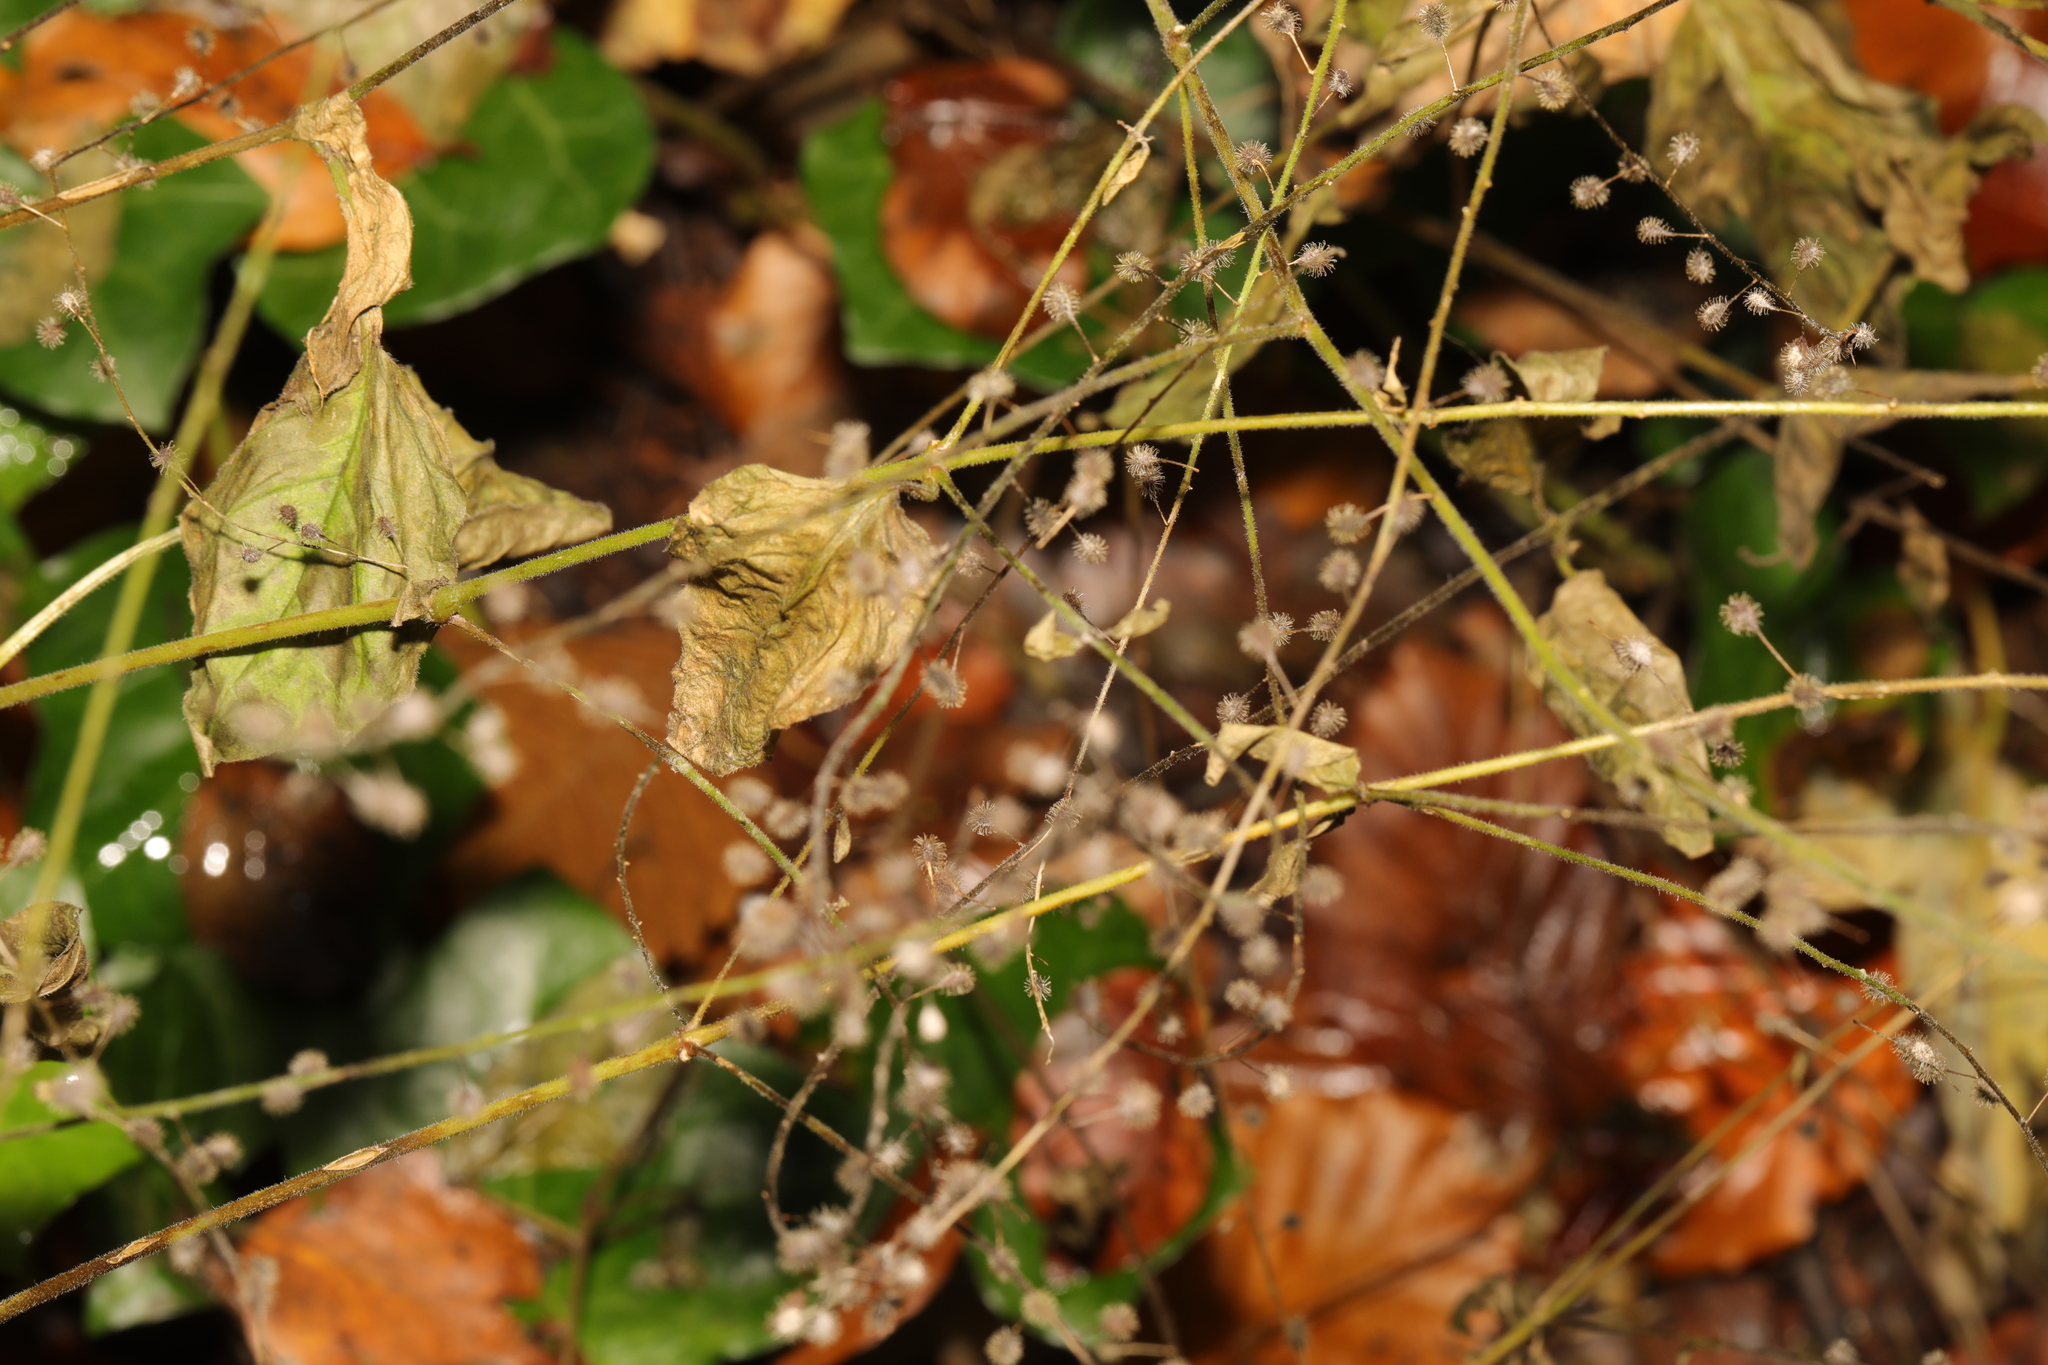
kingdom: Plantae
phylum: Tracheophyta
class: Magnoliopsida
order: Myrtales
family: Onagraceae
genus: Circaea
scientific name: Circaea lutetiana
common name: Enchanter's-nightshade
